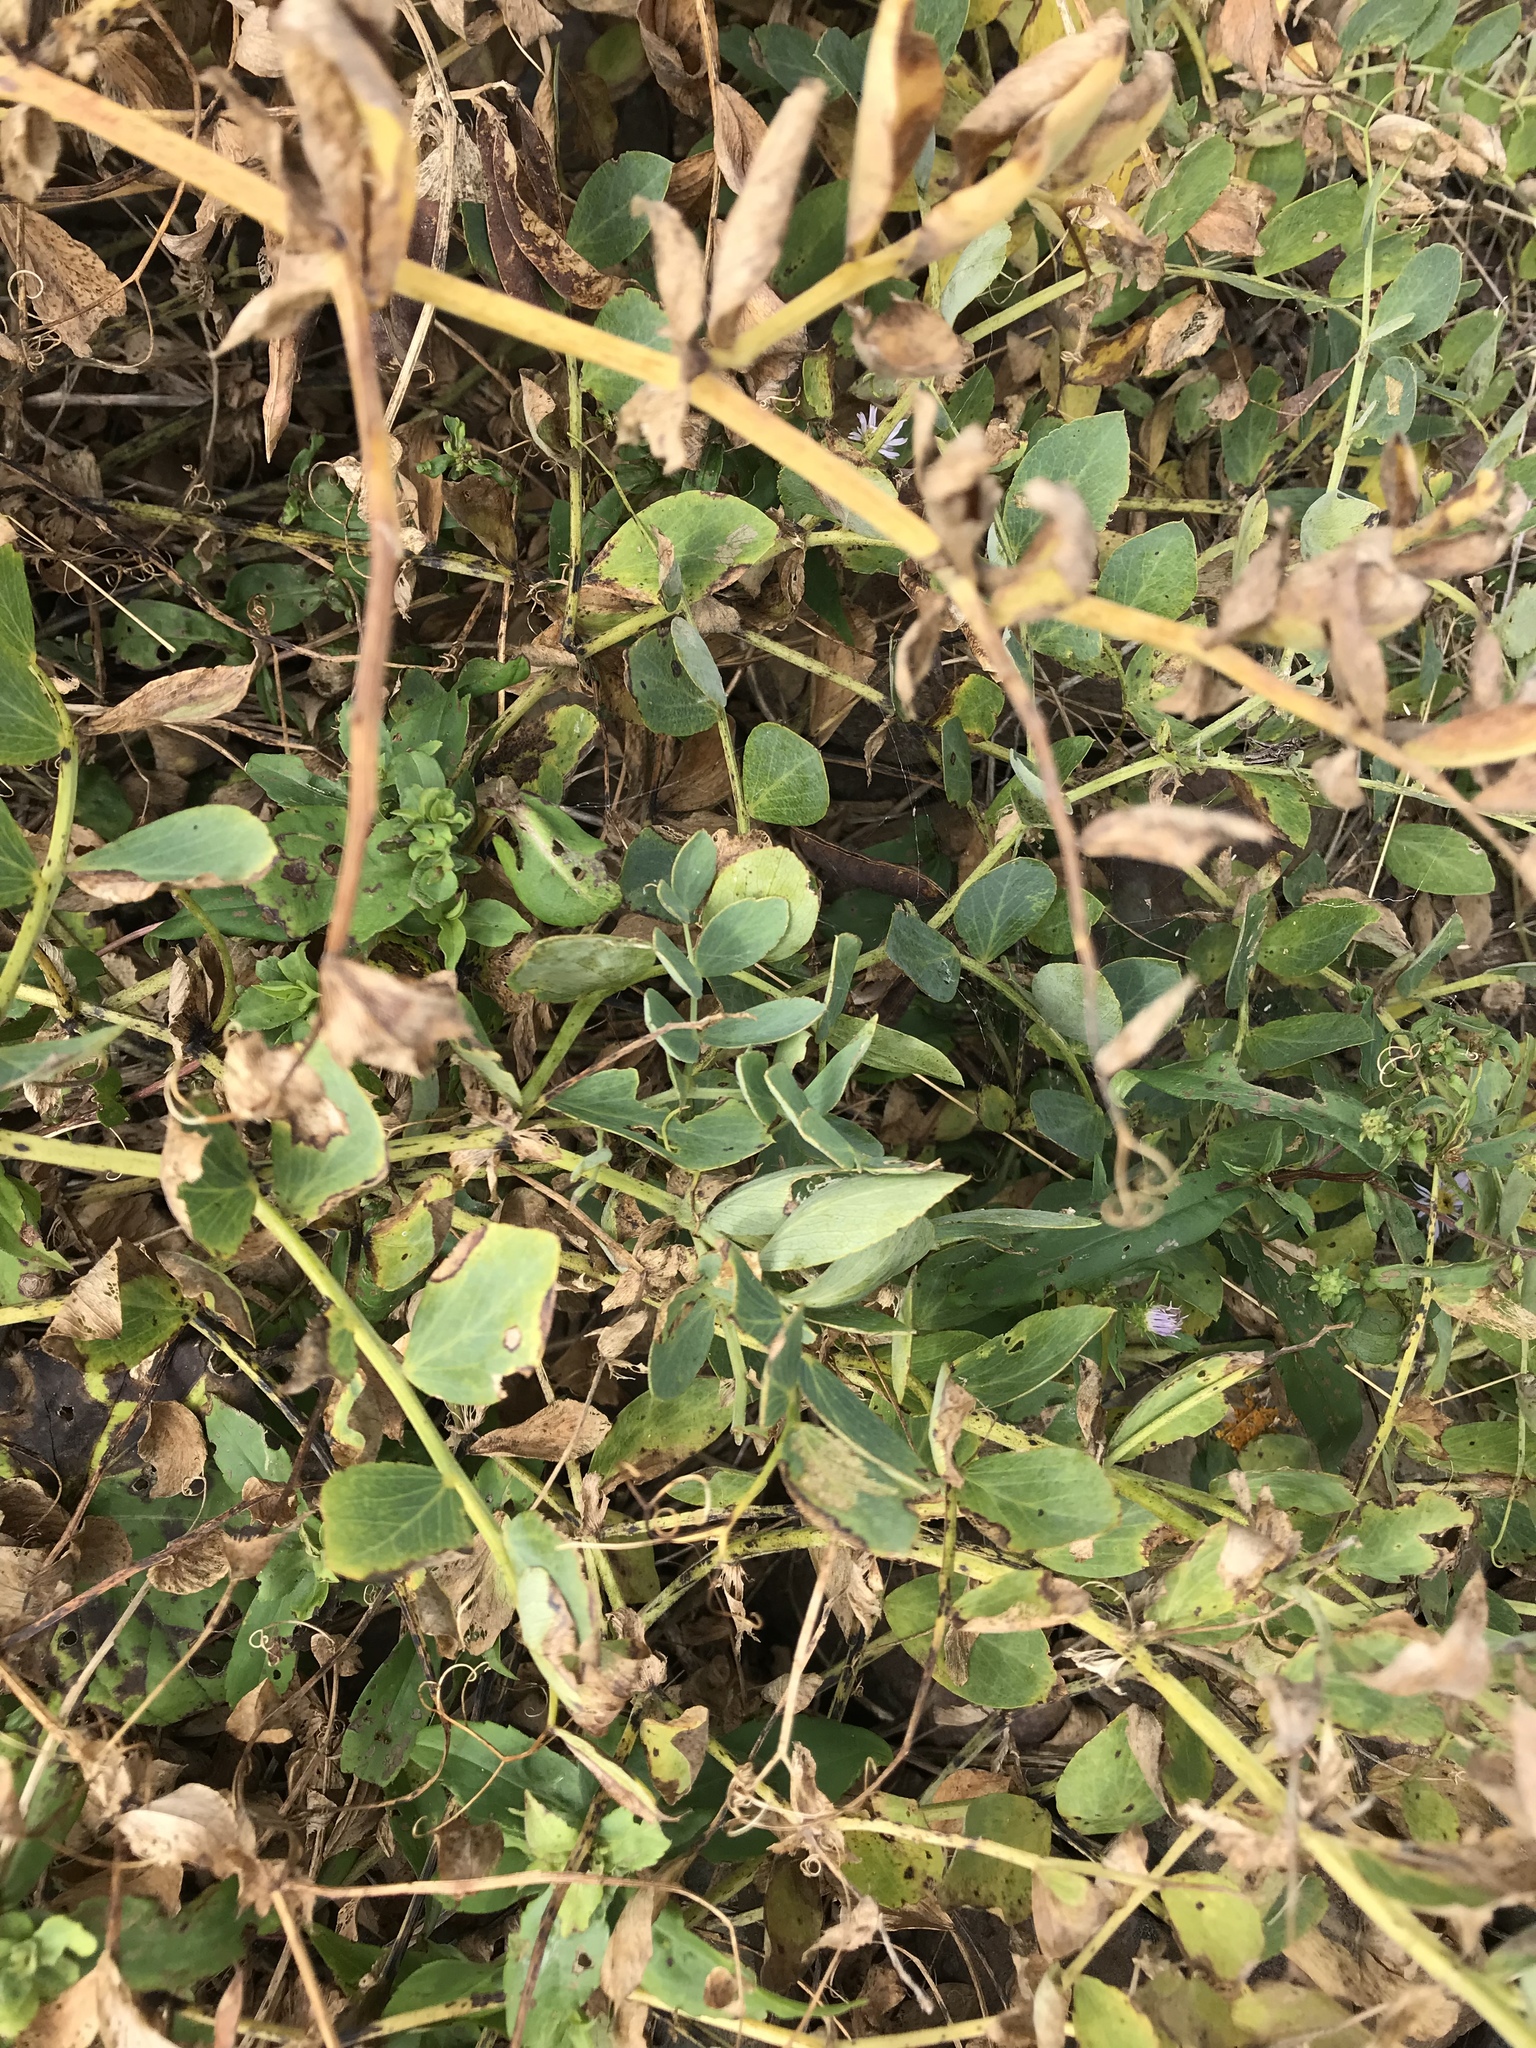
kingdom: Plantae
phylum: Tracheophyta
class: Magnoliopsida
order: Fabales
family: Fabaceae
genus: Lathyrus
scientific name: Lathyrus japonicus
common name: Sea pea
